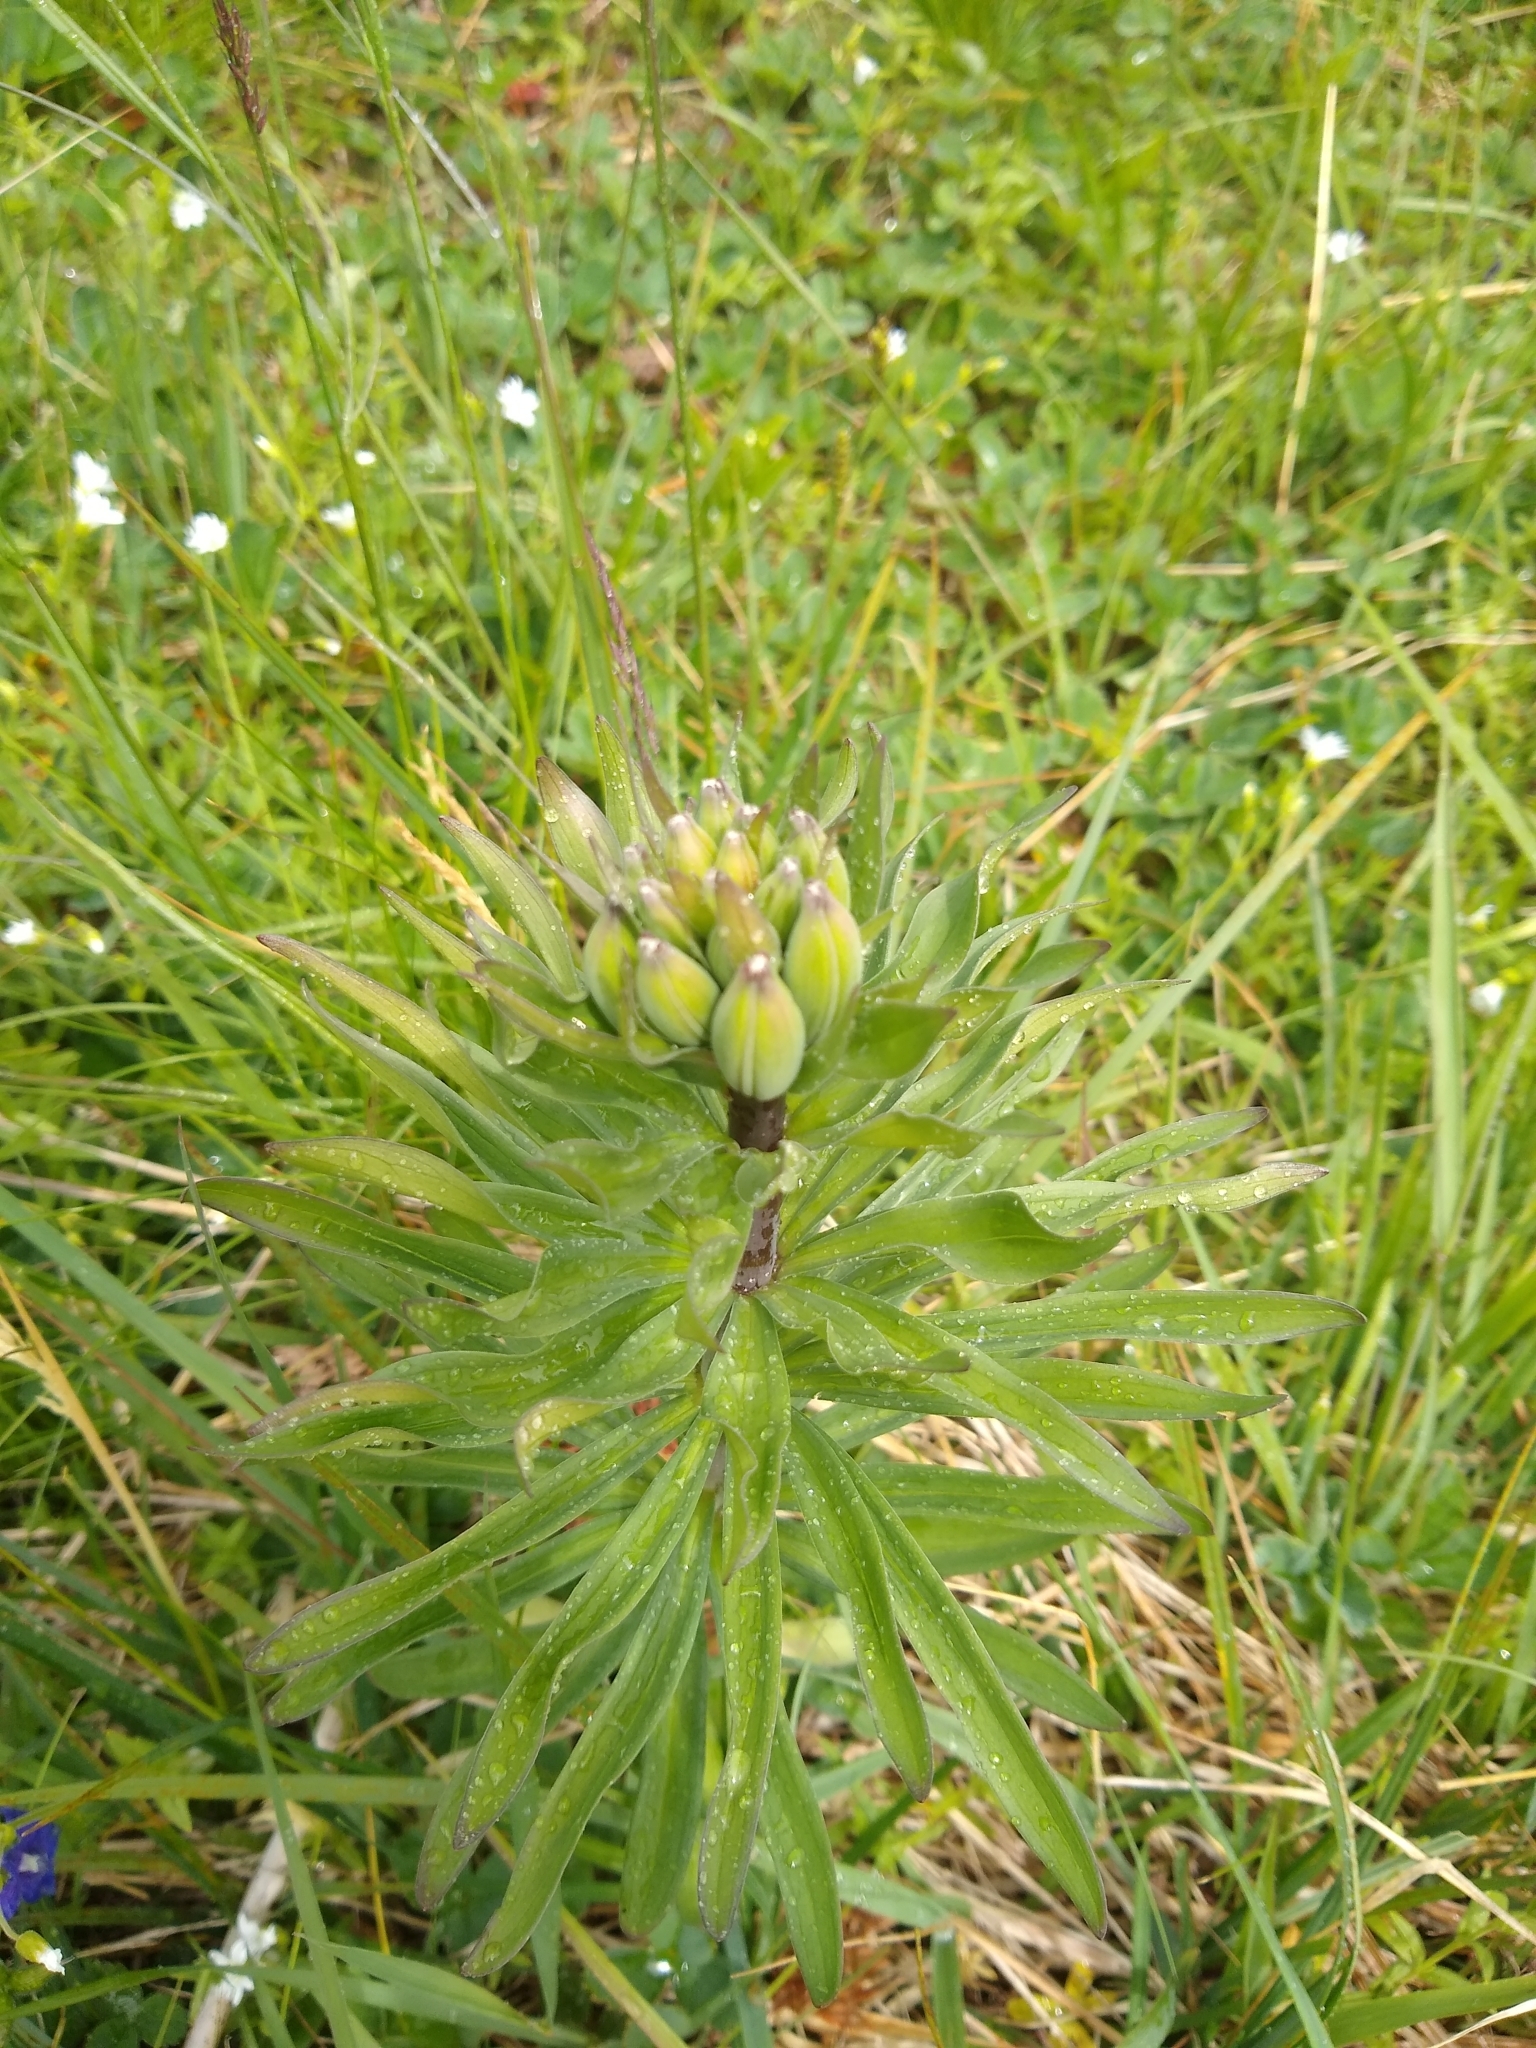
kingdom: Plantae
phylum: Tracheophyta
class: Liliopsida
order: Liliales
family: Liliaceae
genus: Lilium
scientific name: Lilium columbianum
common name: Columbia lily
